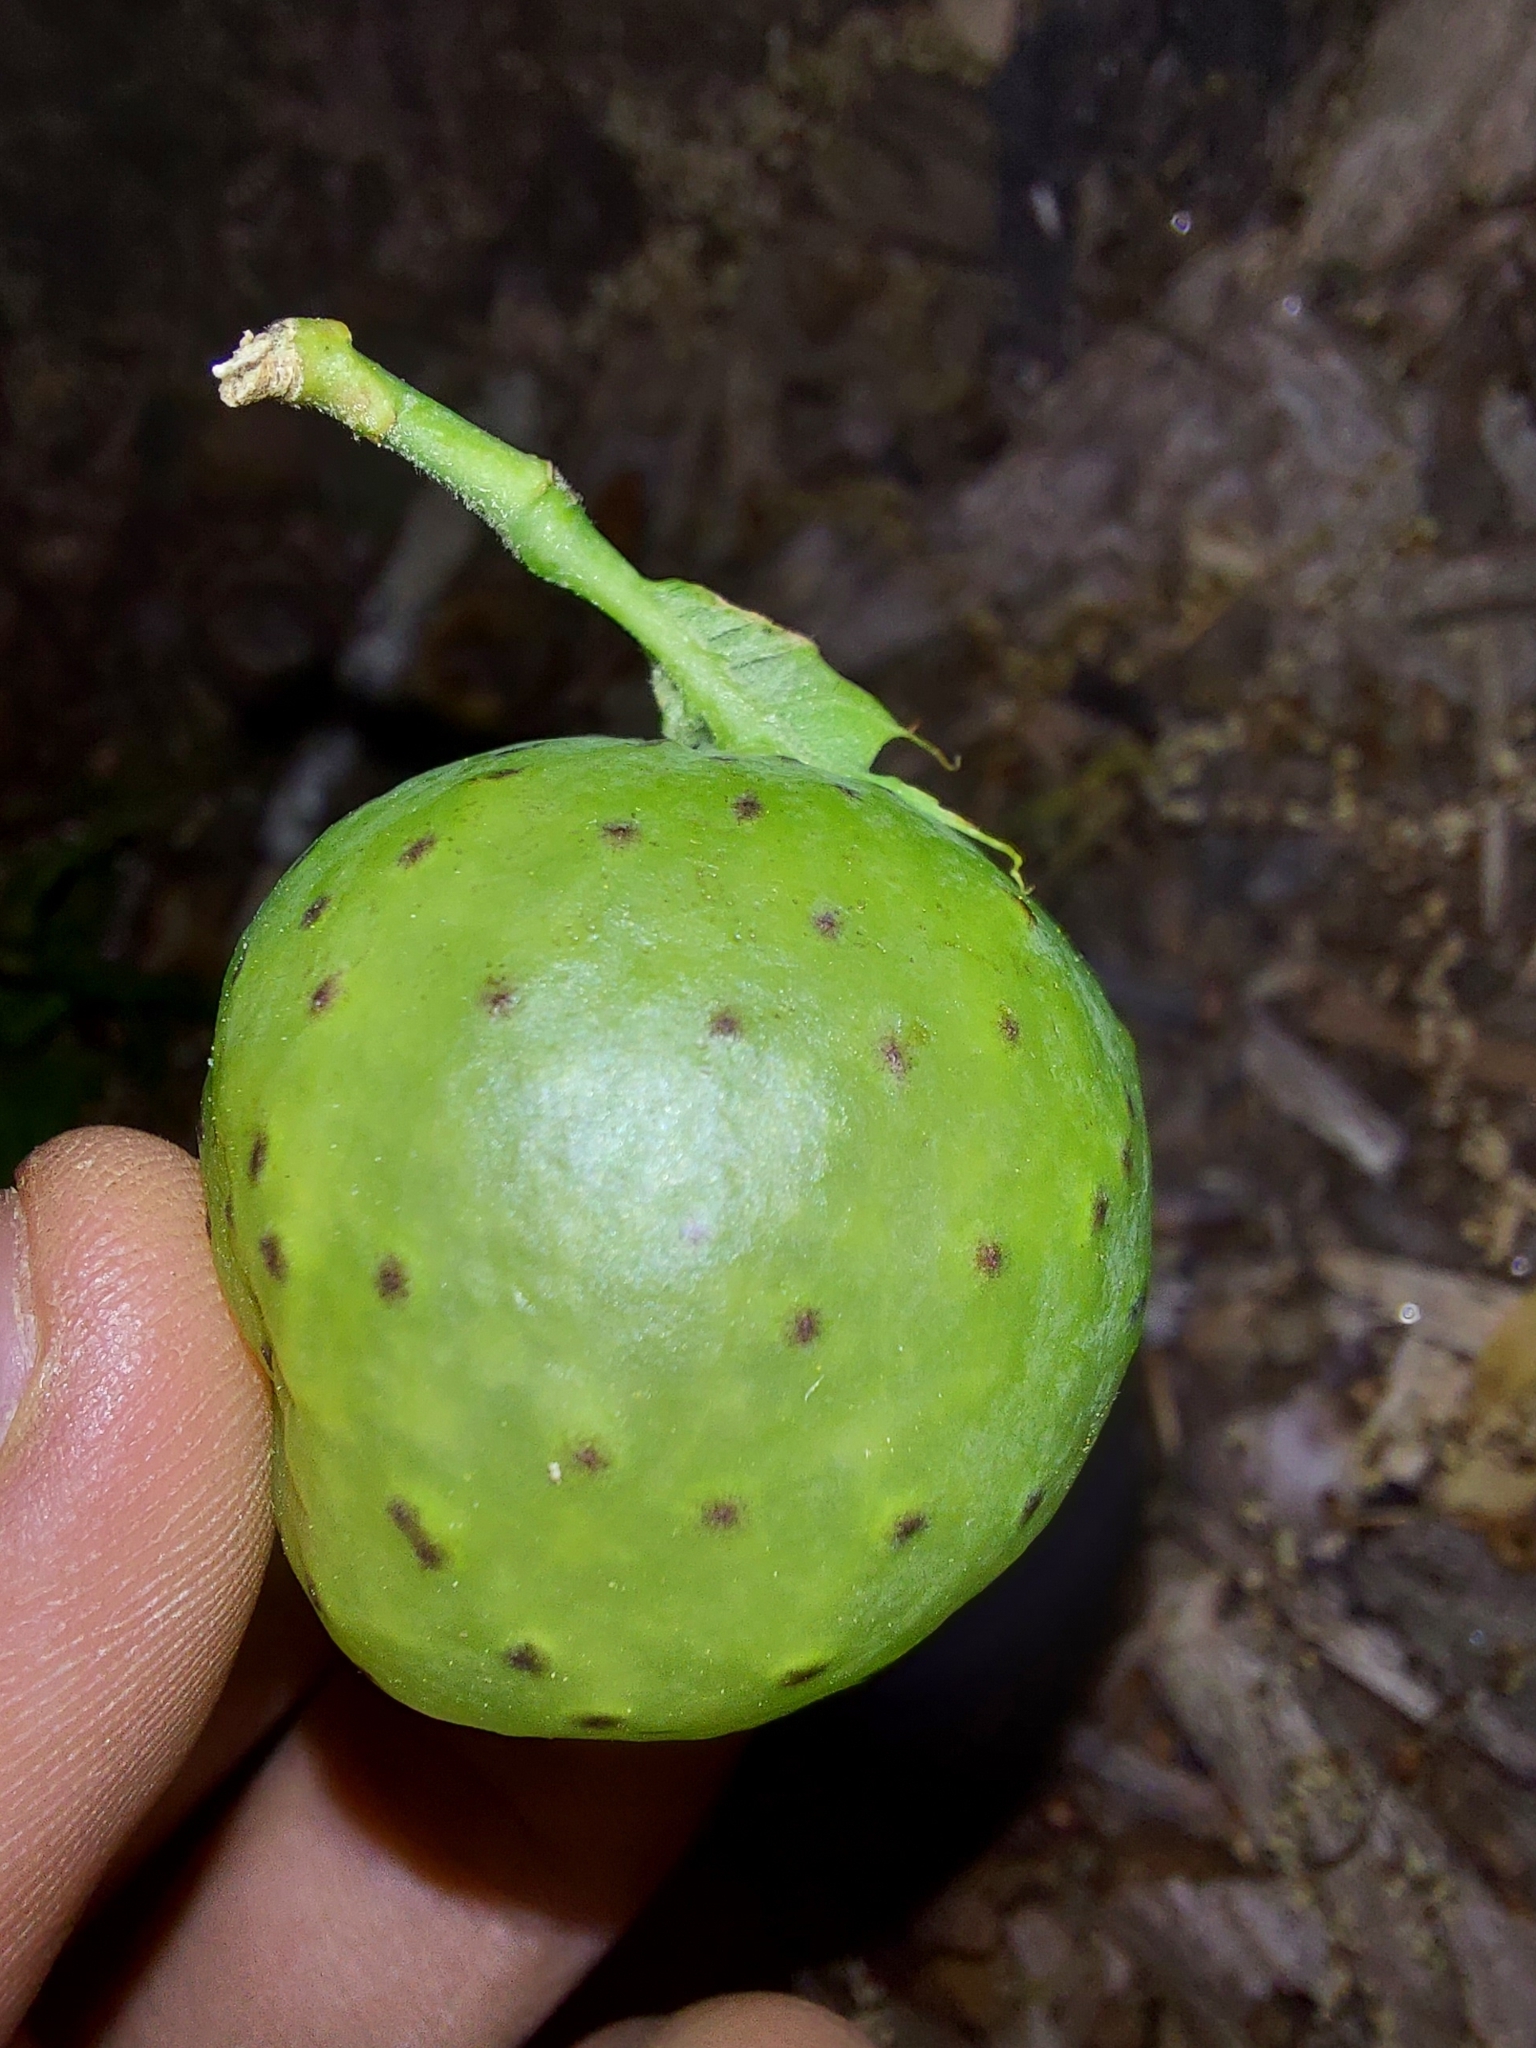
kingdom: Animalia
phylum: Arthropoda
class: Insecta
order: Hymenoptera
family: Cynipidae
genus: Amphibolips
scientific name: Amphibolips
